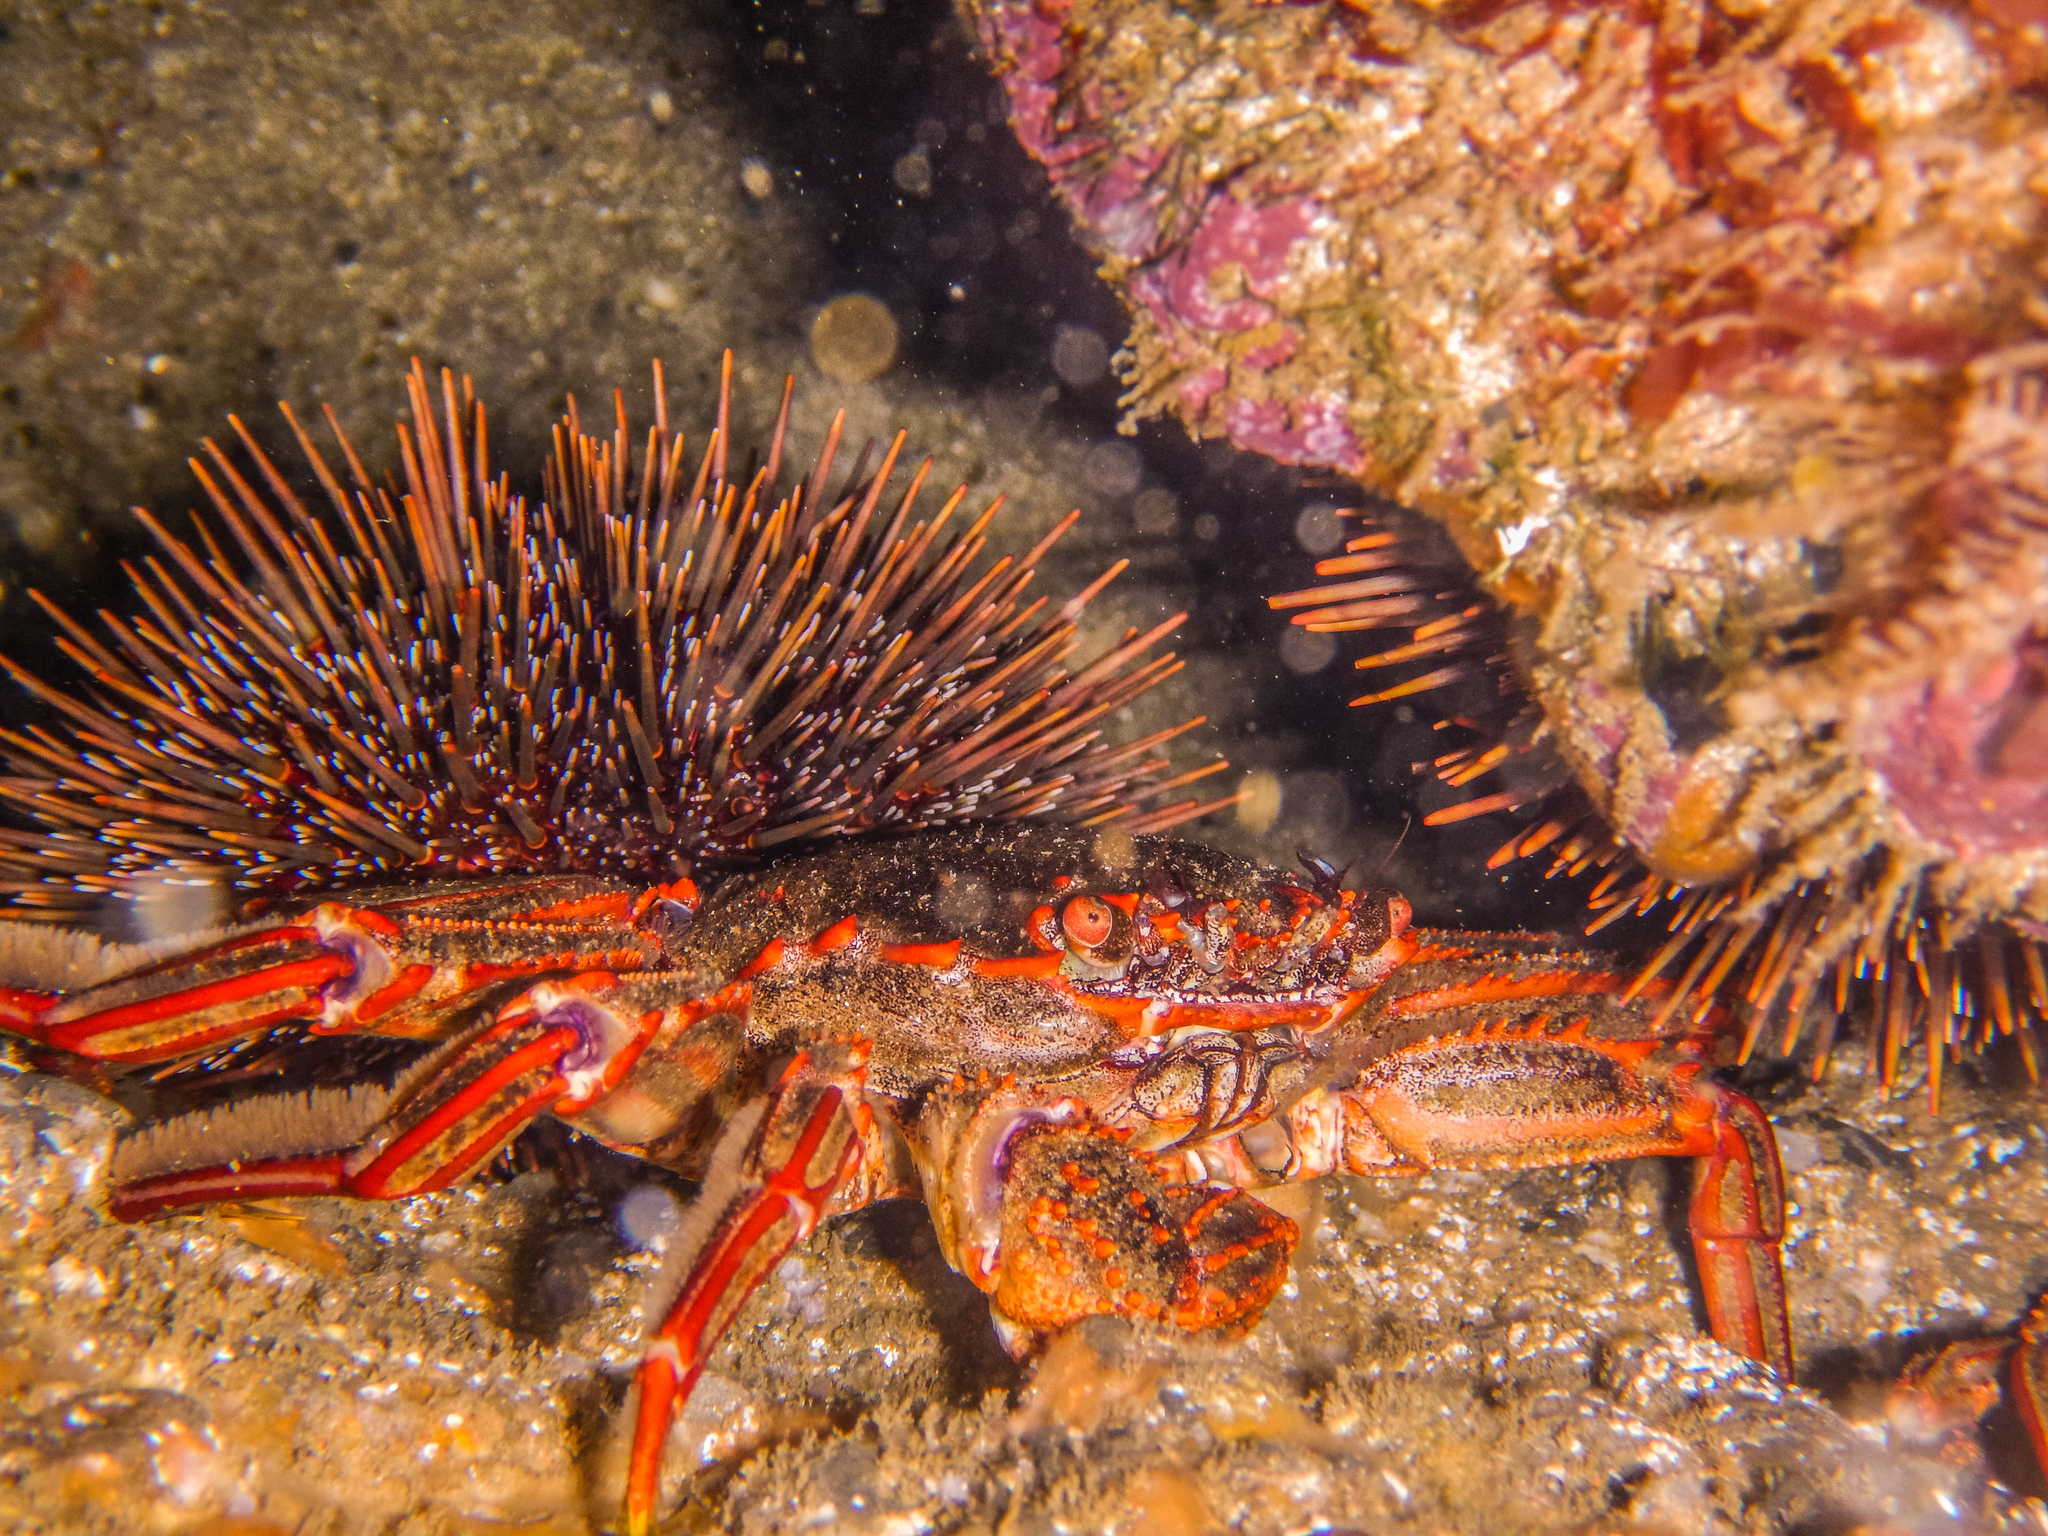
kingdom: Animalia
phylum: Arthropoda
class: Malacostraca
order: Decapoda
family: Plagusiidae
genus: Guinusia
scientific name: Guinusia chabrus
